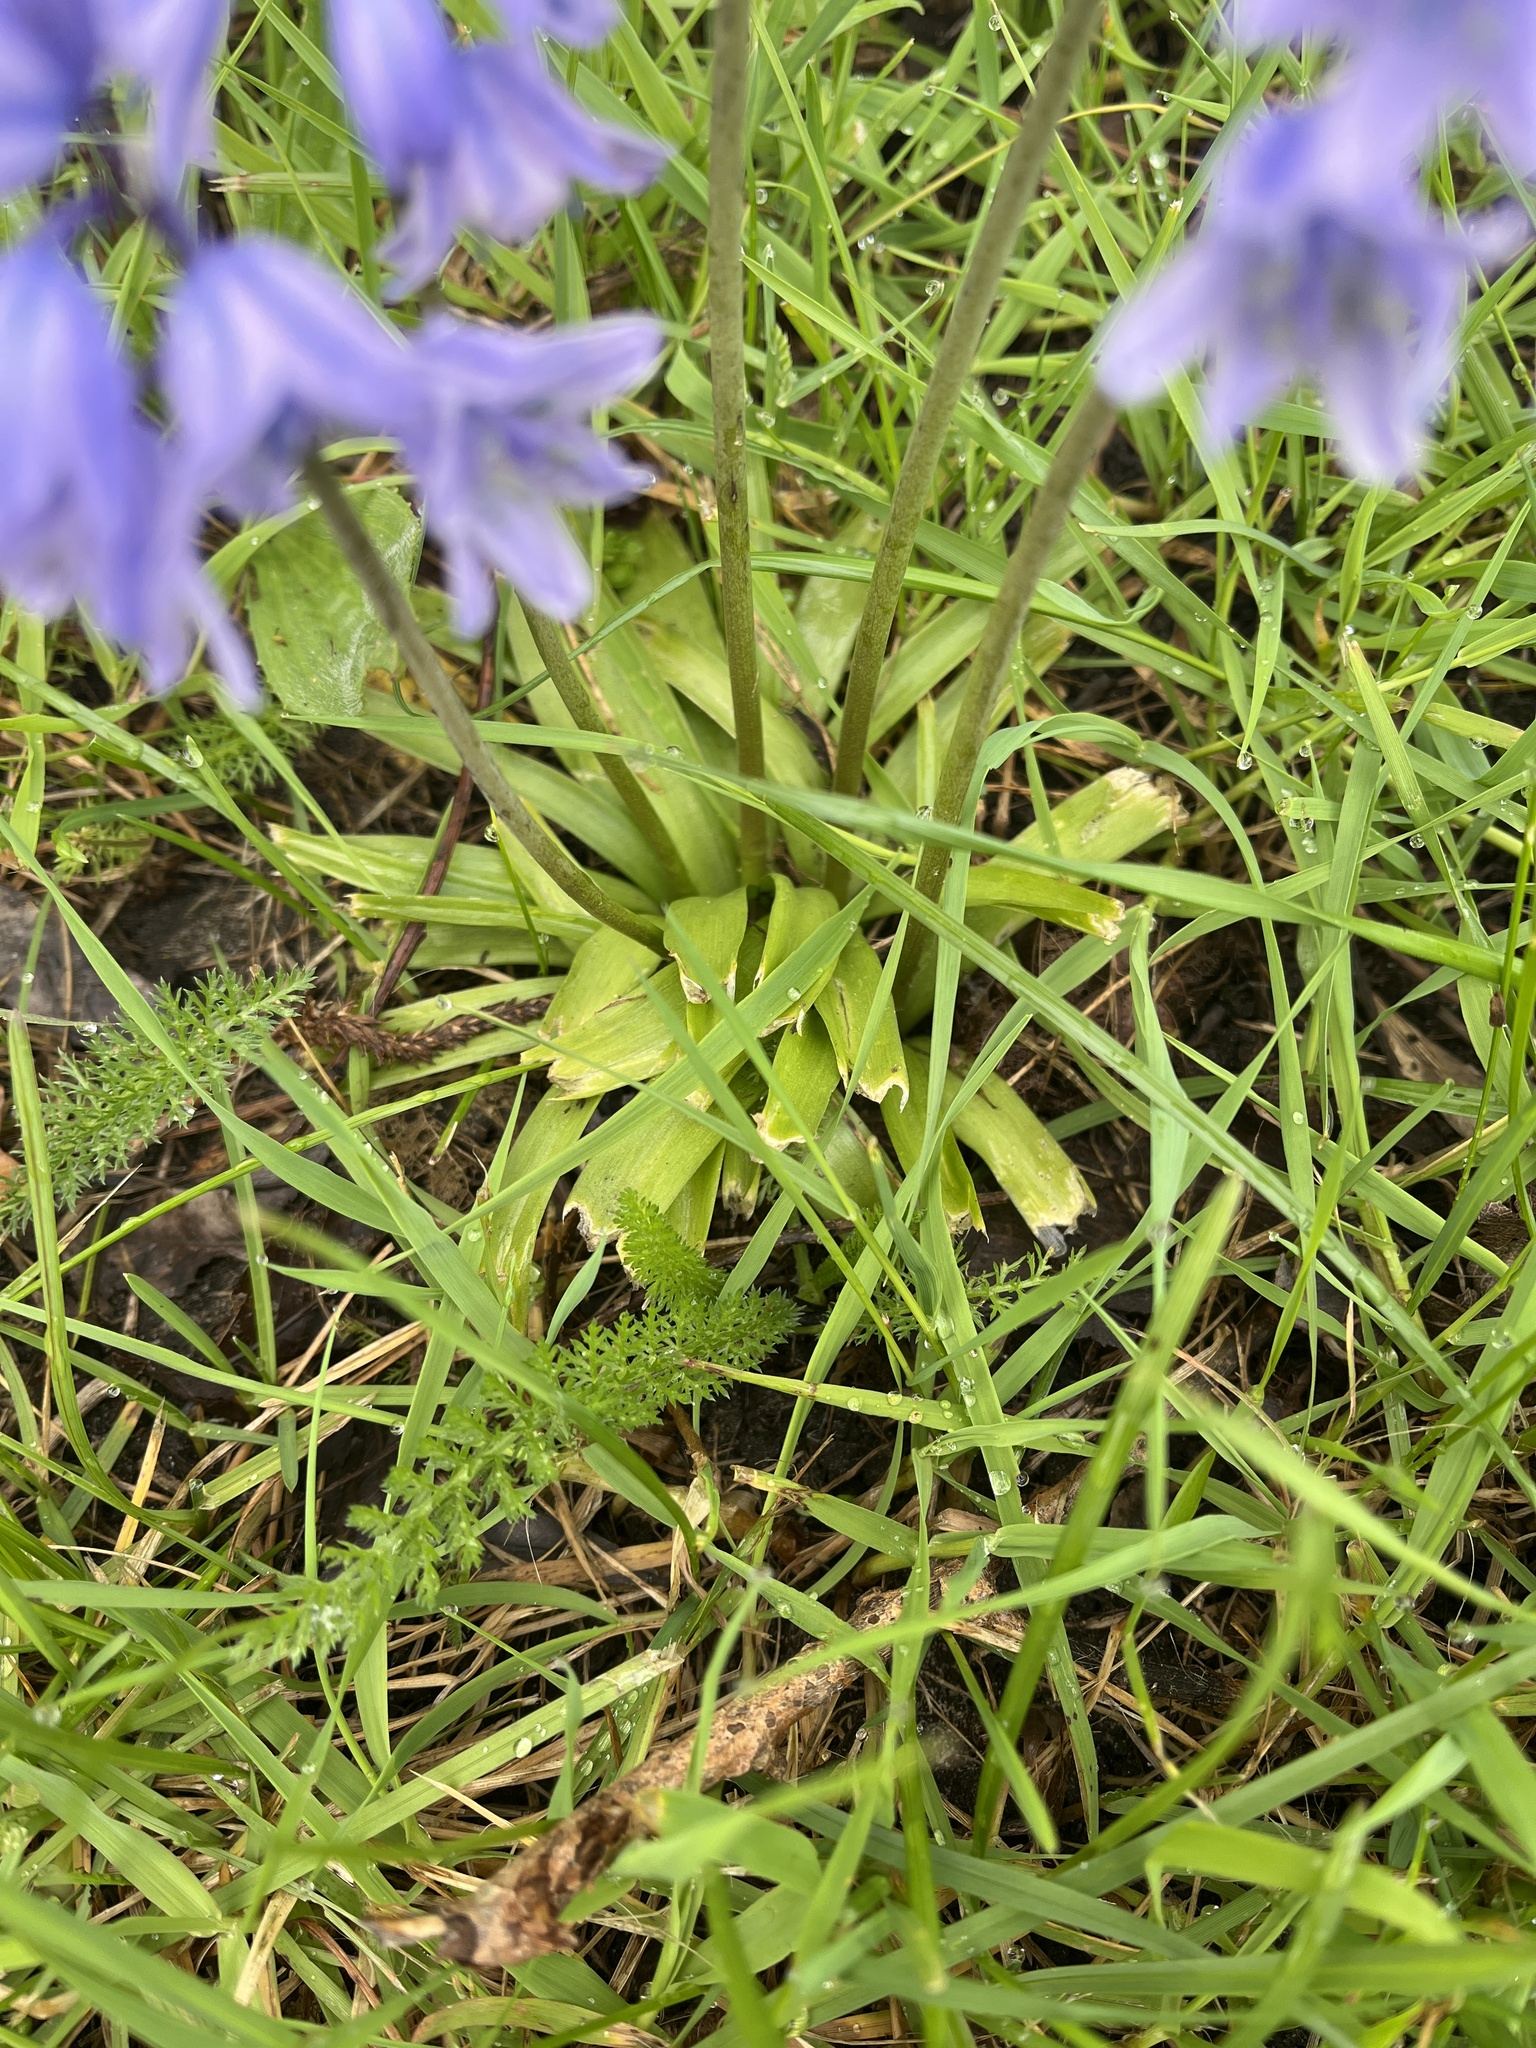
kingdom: Plantae
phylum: Tracheophyta
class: Liliopsida
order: Asparagales
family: Asparagaceae
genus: Hyacinthoides
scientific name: Hyacinthoides massartiana
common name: Hyacinthoides
